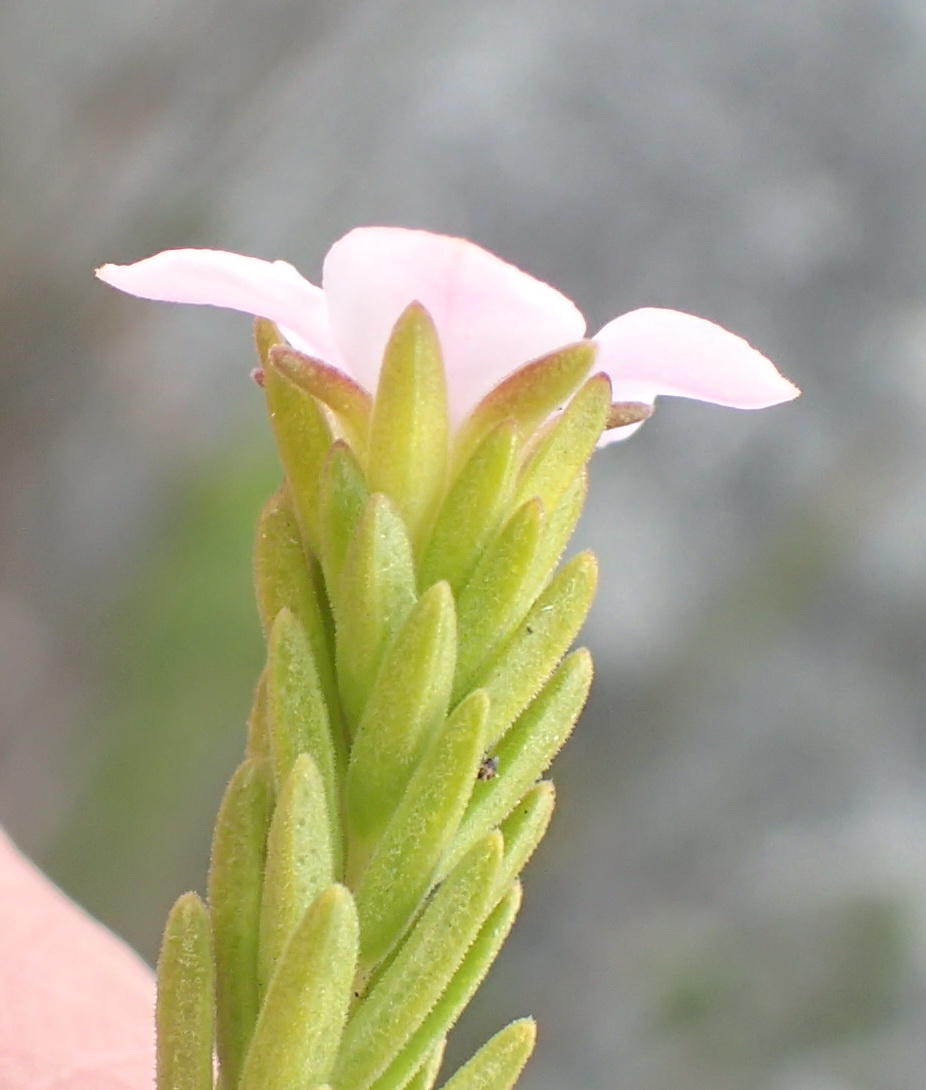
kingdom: Plantae
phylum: Tracheophyta
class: Magnoliopsida
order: Sapindales
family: Rutaceae
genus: Acmadenia
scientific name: Acmadenia rupicola
